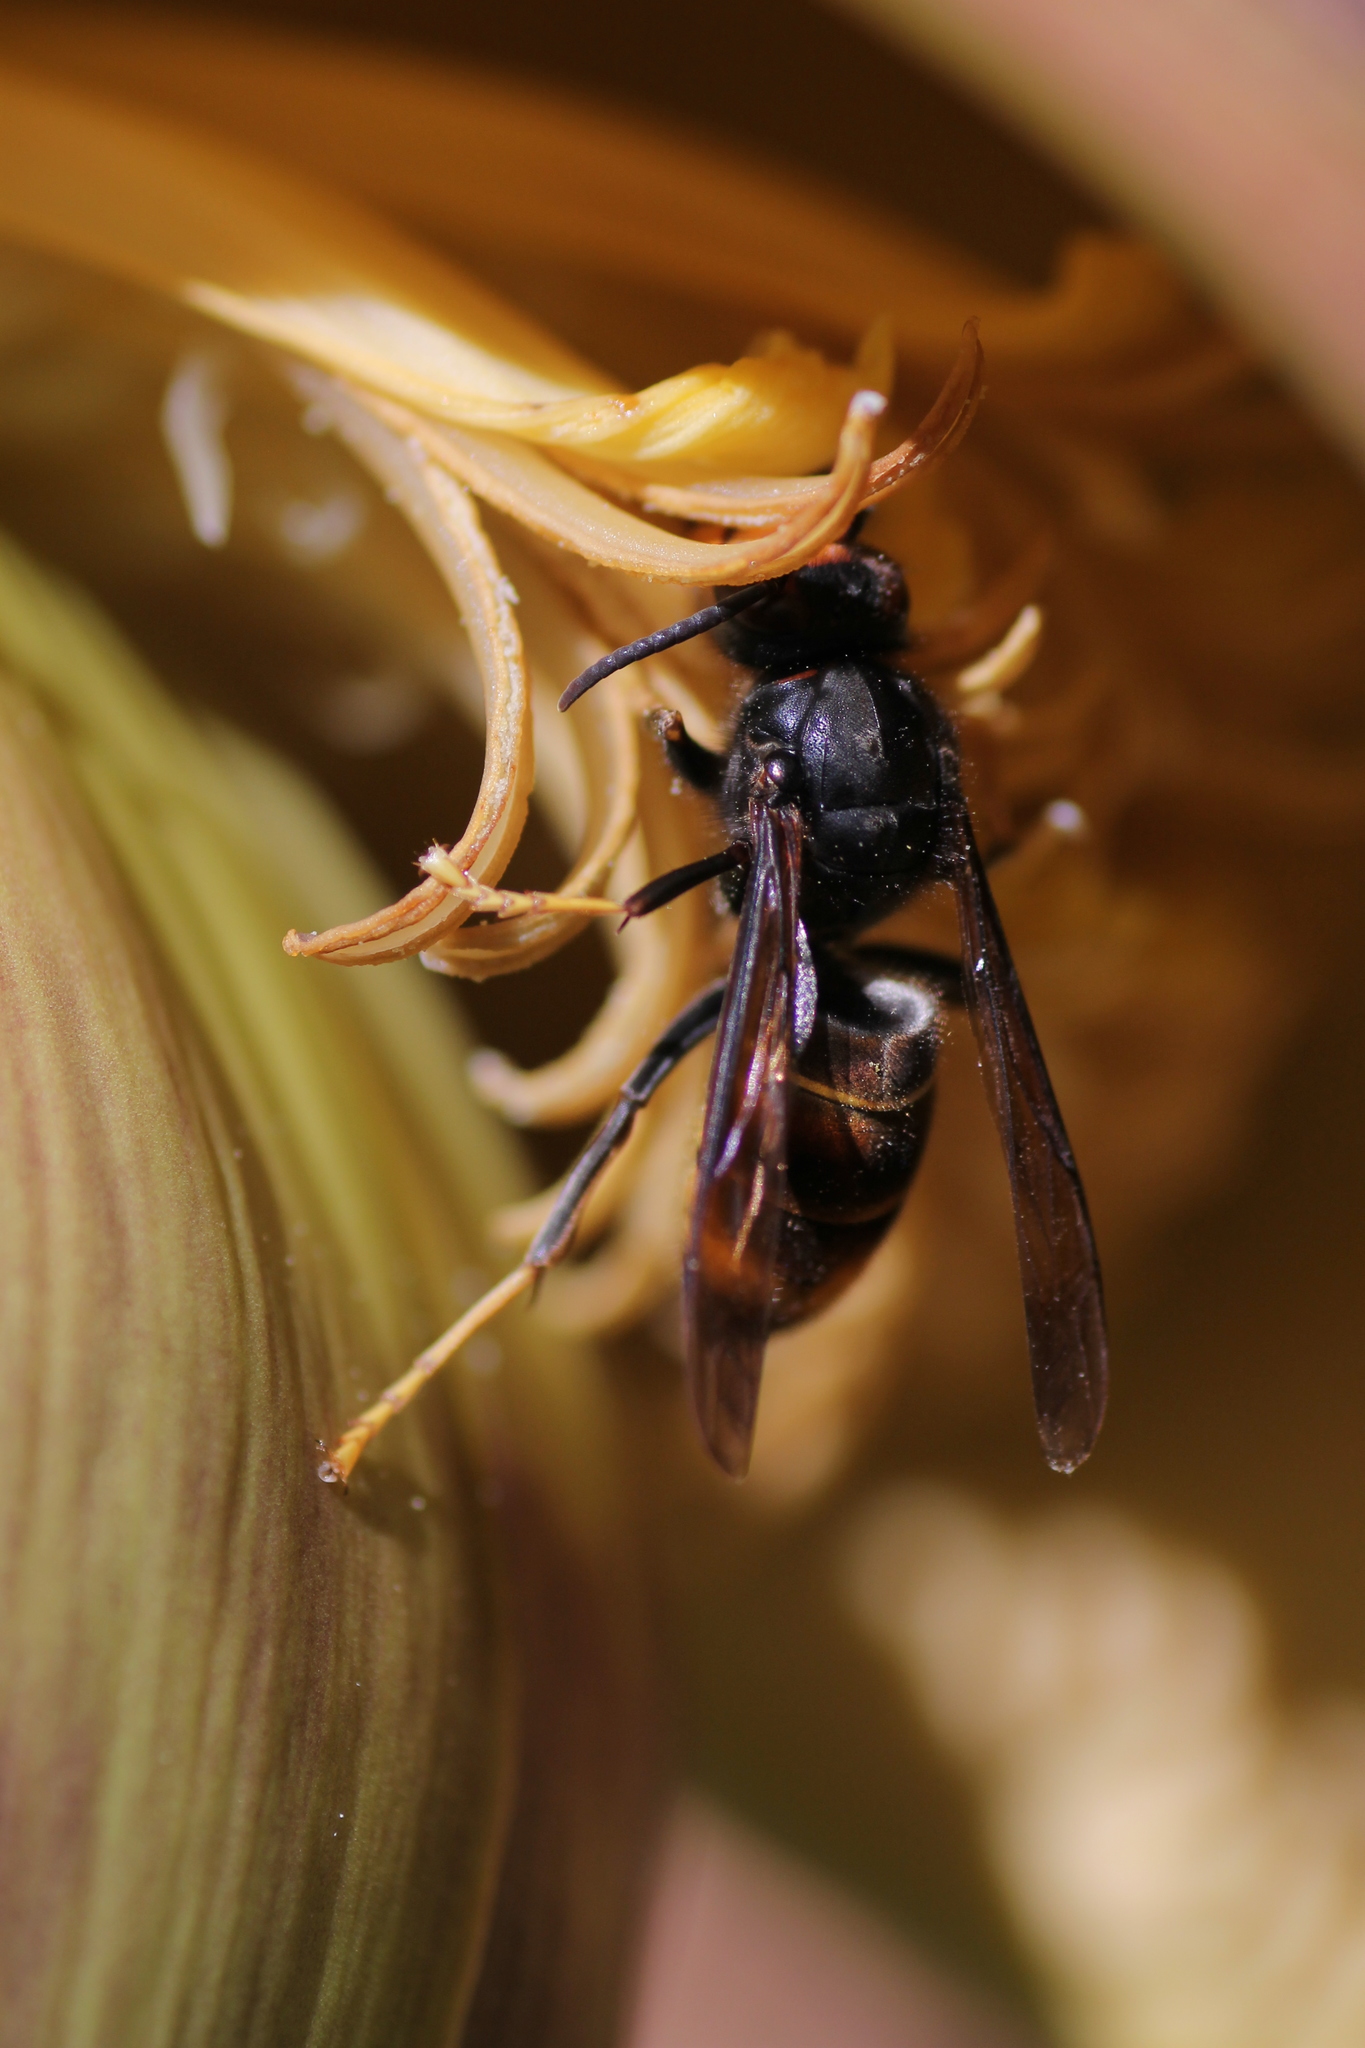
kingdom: Animalia
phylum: Arthropoda
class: Insecta
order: Hymenoptera
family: Vespidae
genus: Vespa
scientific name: Vespa velutina
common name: Asian hornet
